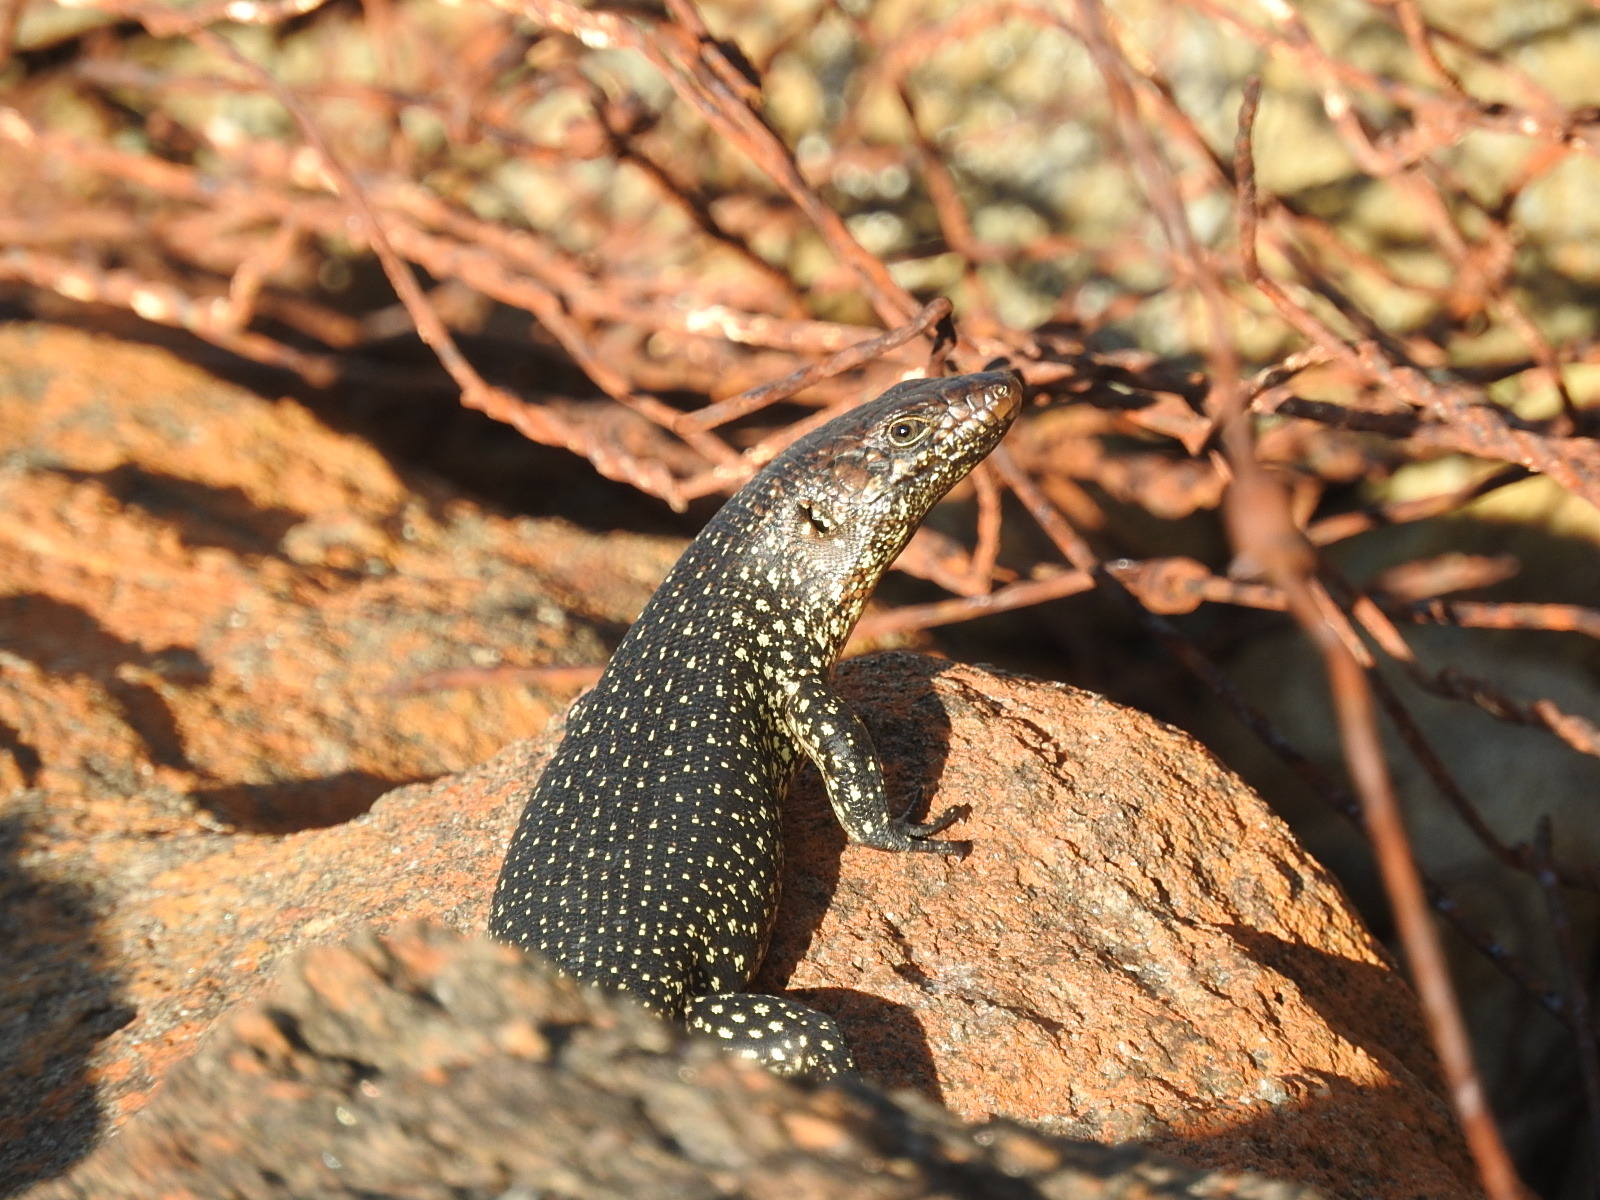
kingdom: Animalia
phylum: Chordata
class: Squamata
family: Scincidae
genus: Egernia
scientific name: Egernia kingii
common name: King's skink
